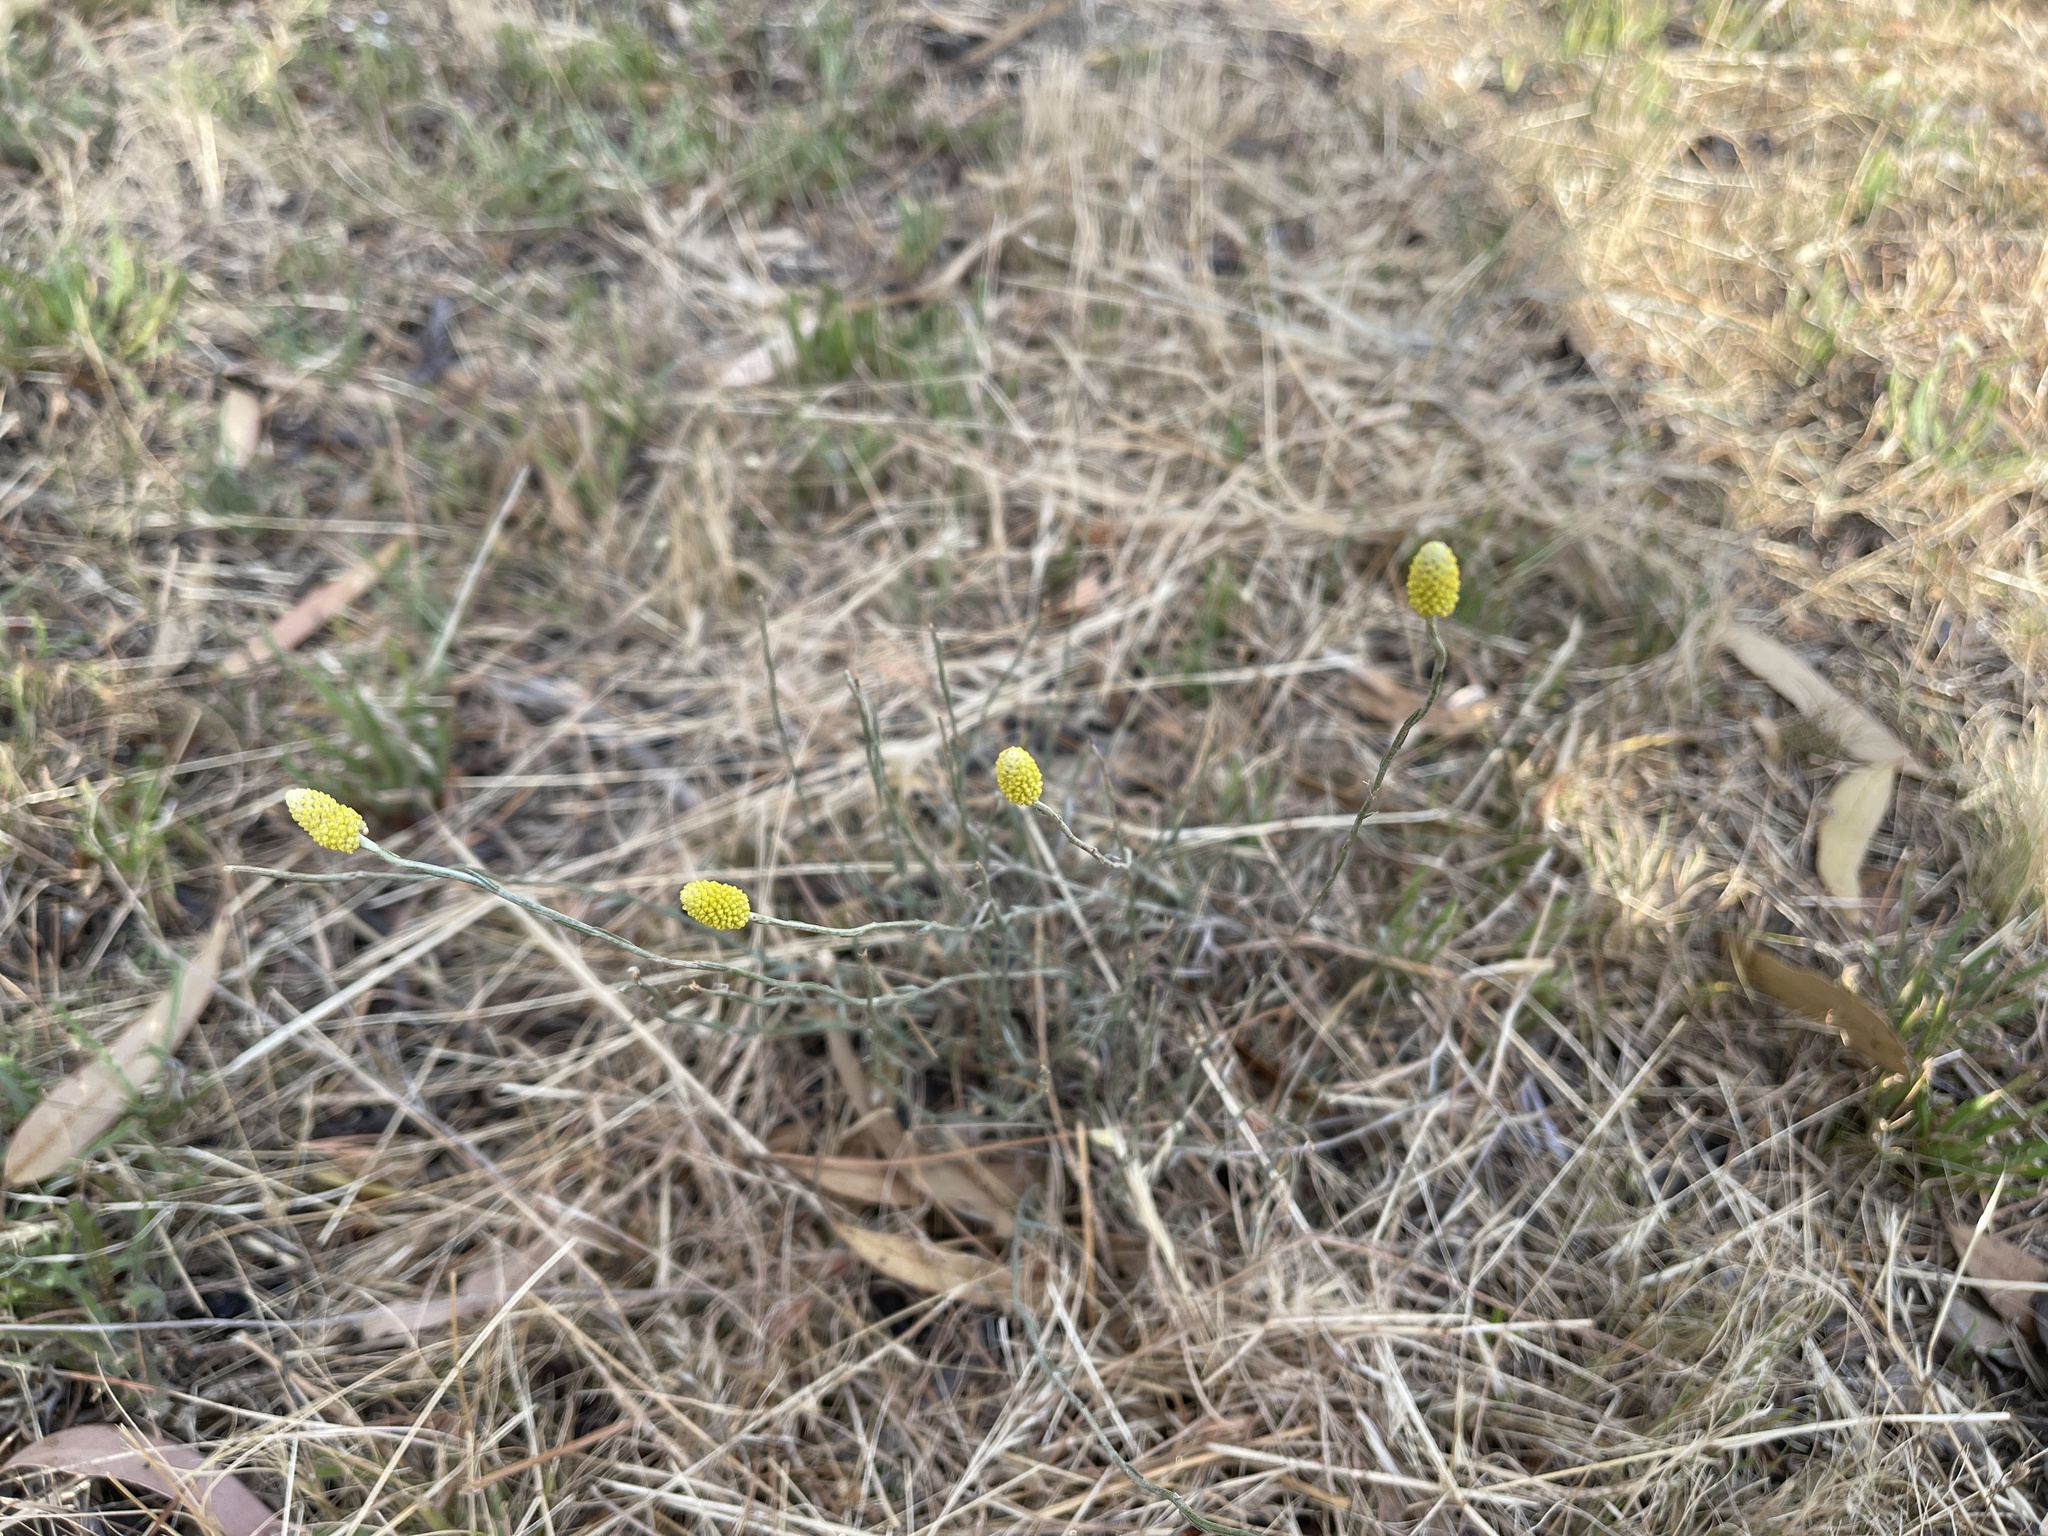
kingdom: Plantae
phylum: Tracheophyta
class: Magnoliopsida
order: Asterales
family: Asteraceae
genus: Calocephalus
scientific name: Calocephalus citreus
